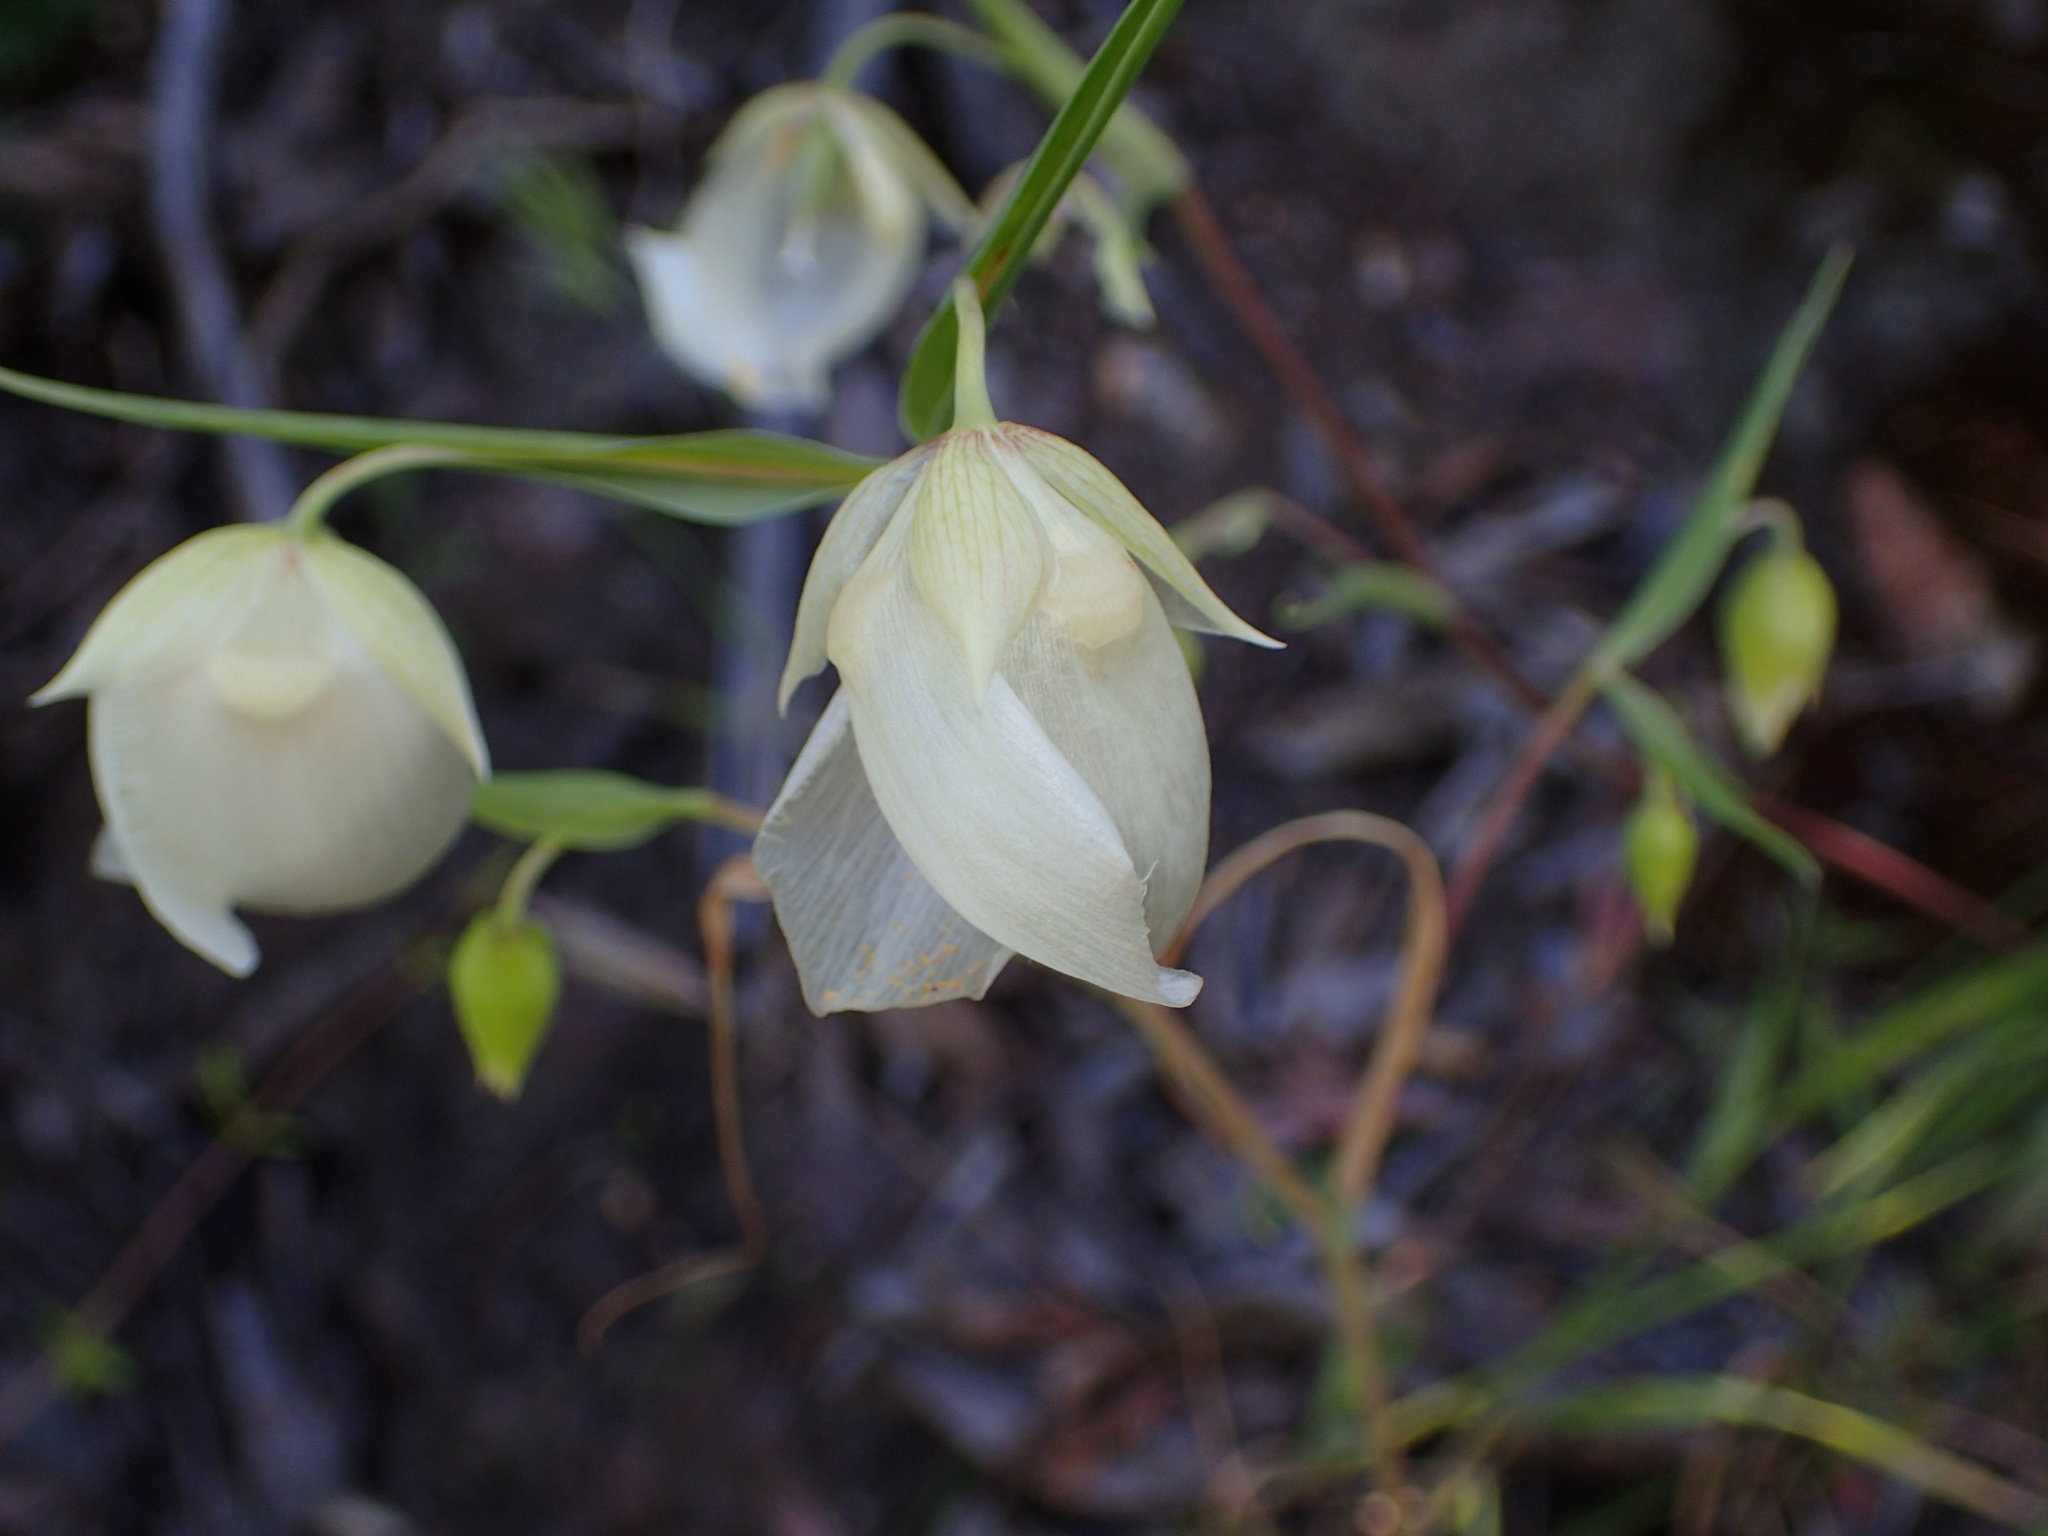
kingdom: Plantae
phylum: Tracheophyta
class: Liliopsida
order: Liliales
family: Liliaceae
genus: Calochortus
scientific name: Calochortus albus
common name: Fairy-lantern
